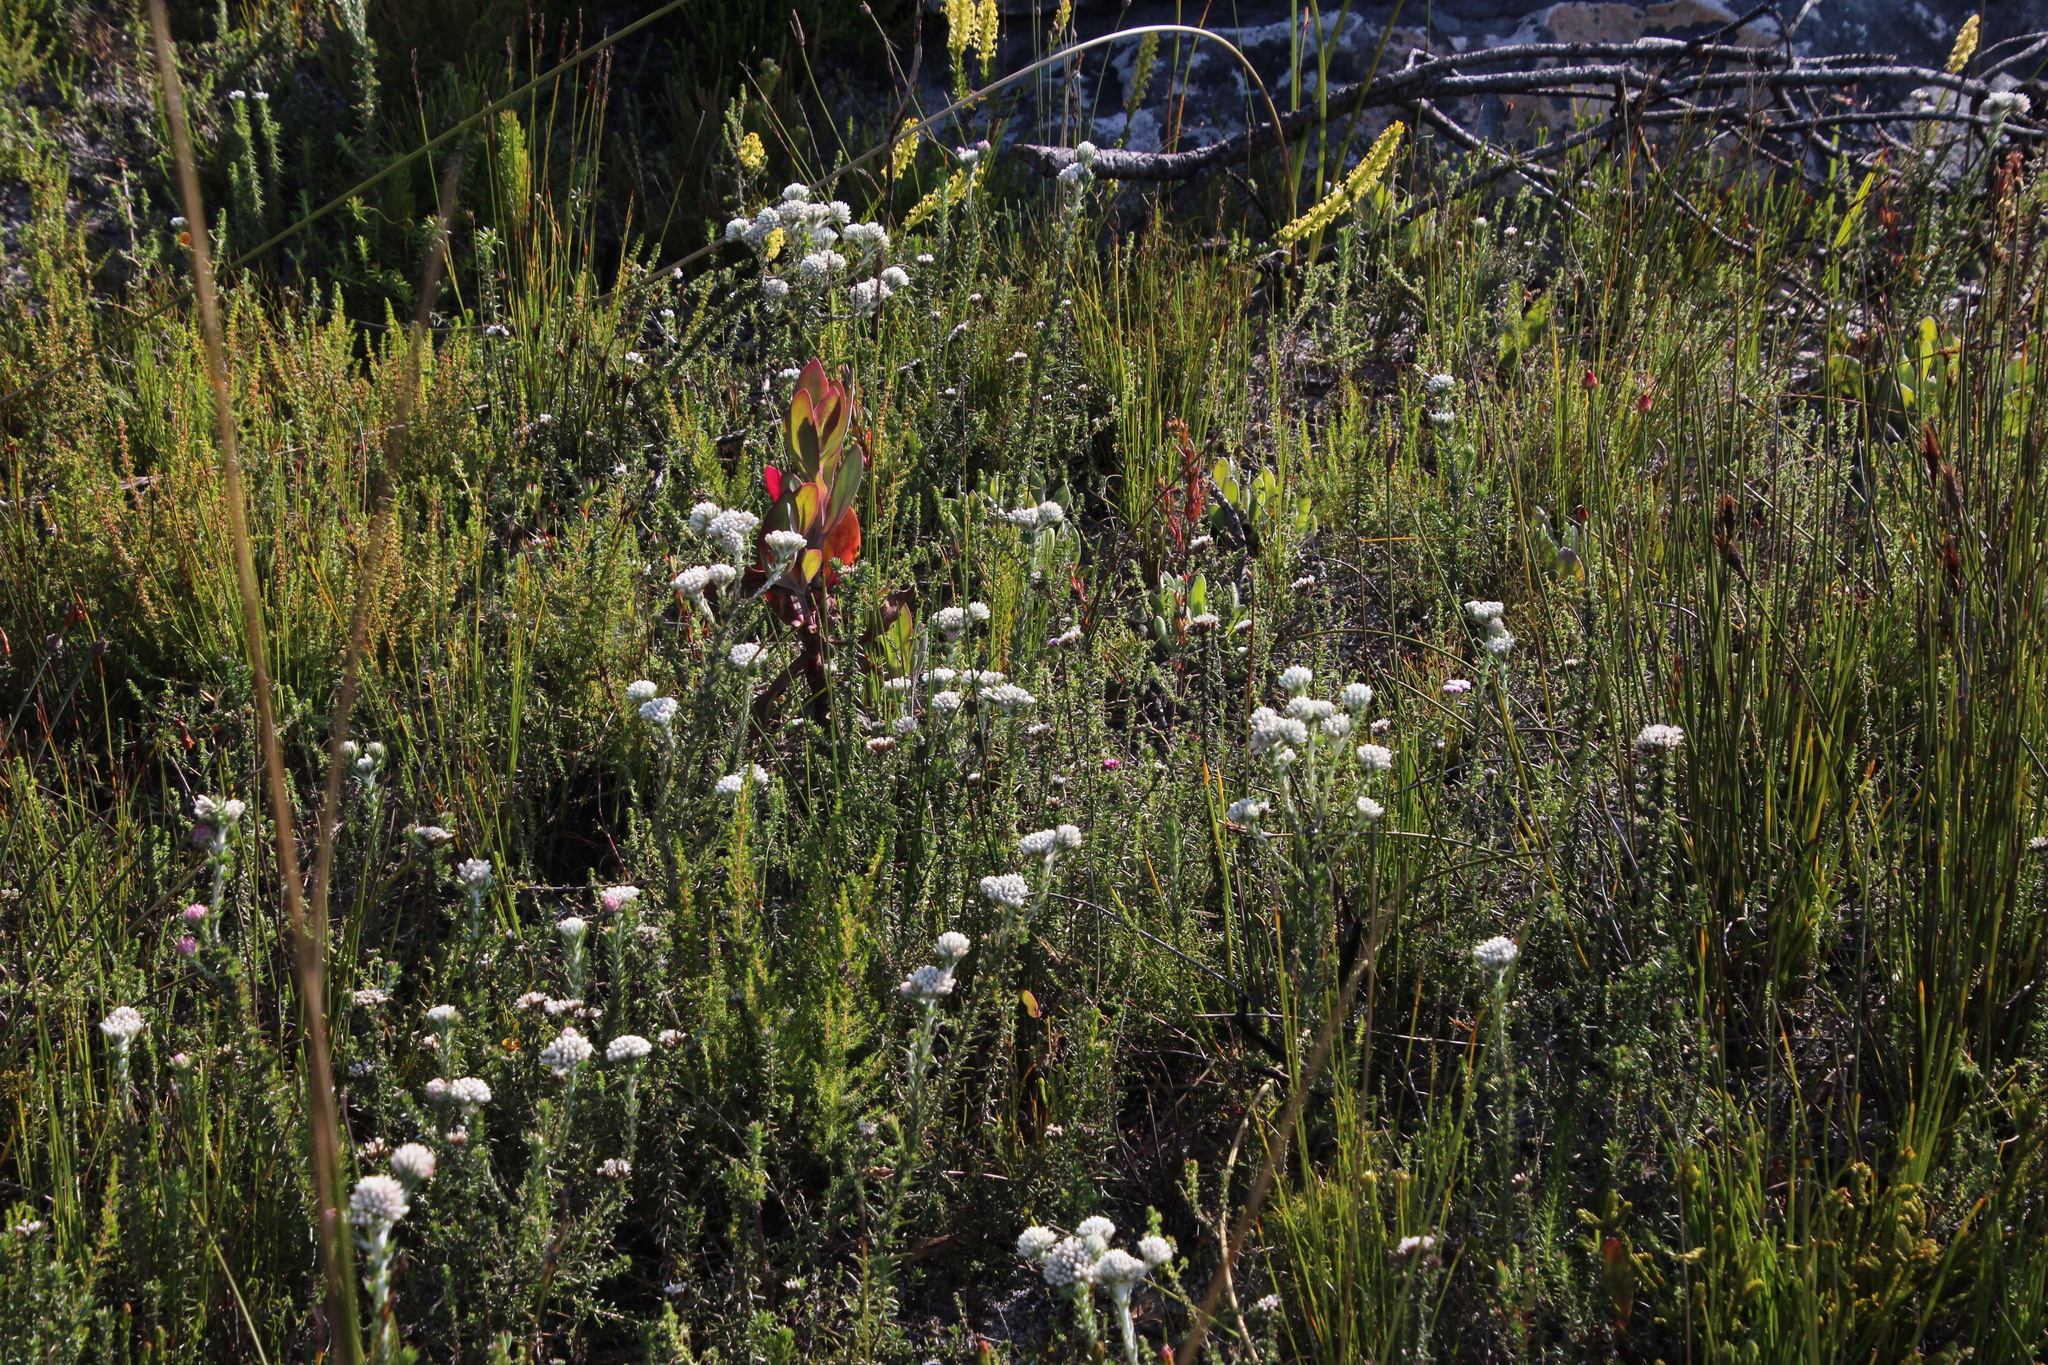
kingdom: Plantae
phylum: Tracheophyta
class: Magnoliopsida
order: Asterales
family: Asteraceae
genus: Metalasia
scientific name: Metalasia compacta
